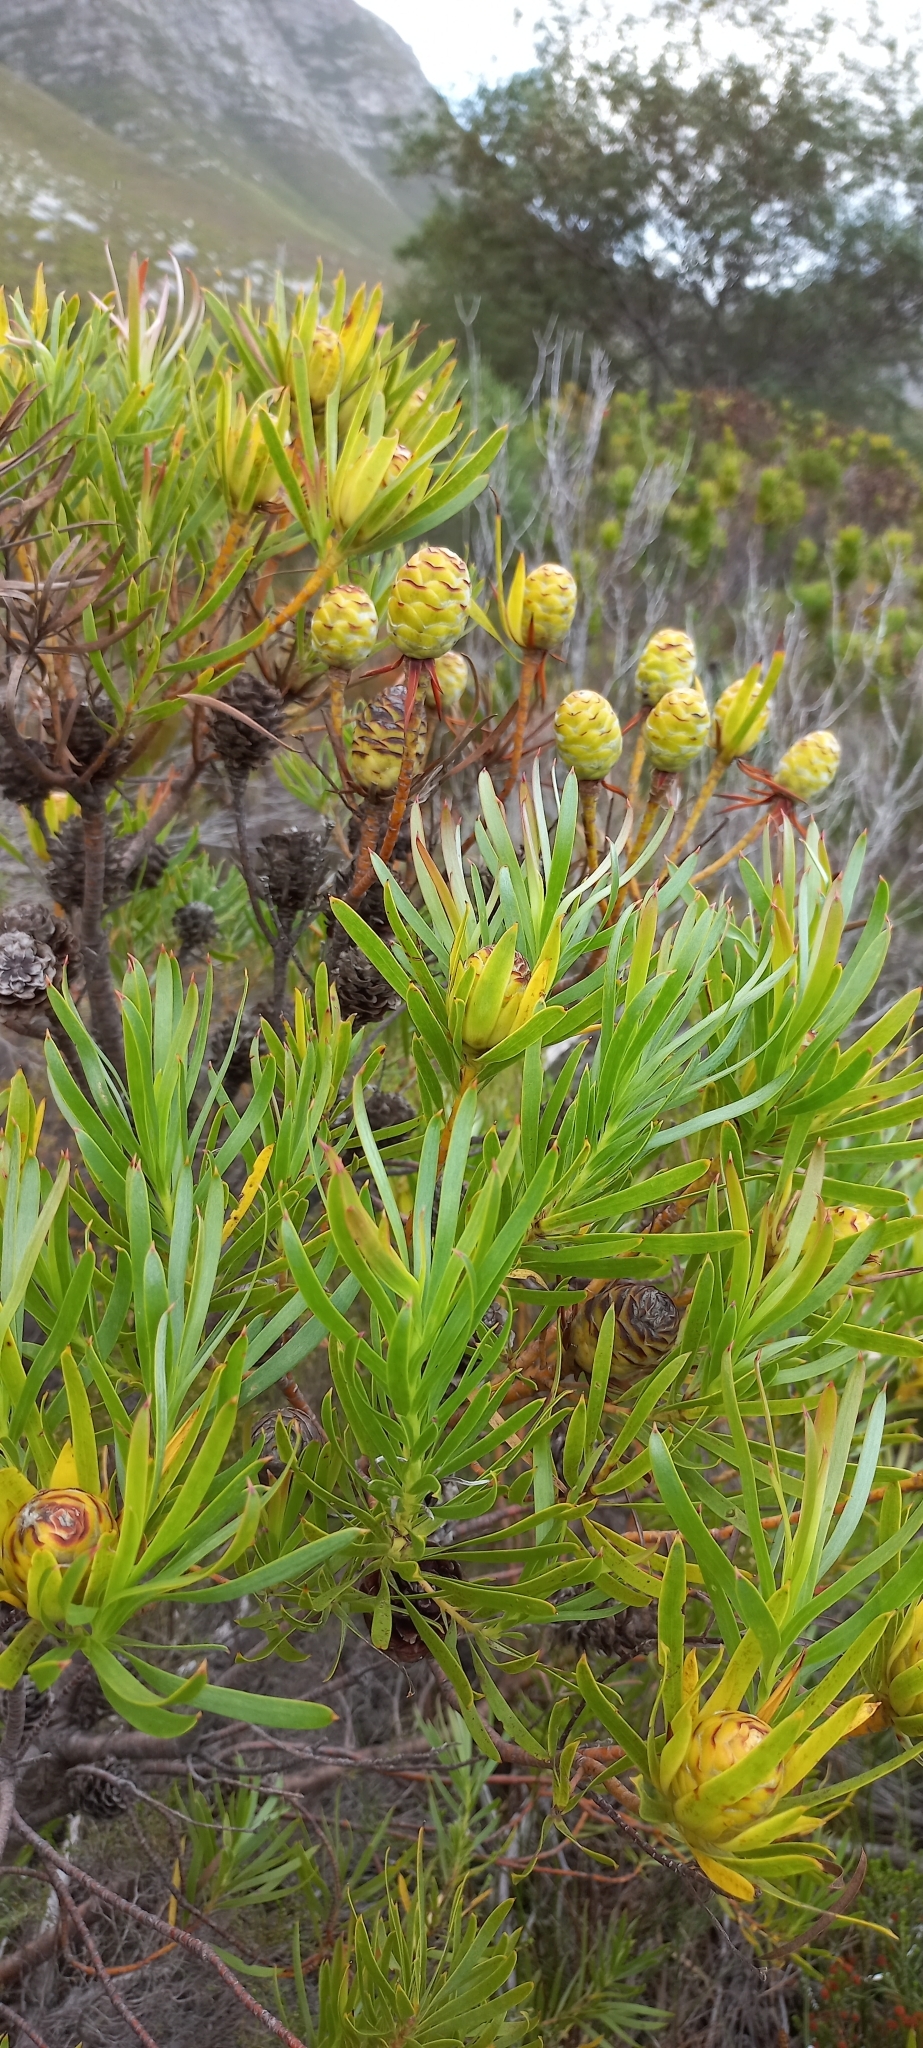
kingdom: Plantae
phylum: Tracheophyta
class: Magnoliopsida
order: Proteales
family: Proteaceae
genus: Leucadendron
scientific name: Leucadendron xanthoconus
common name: Sickle-leaf conebush
